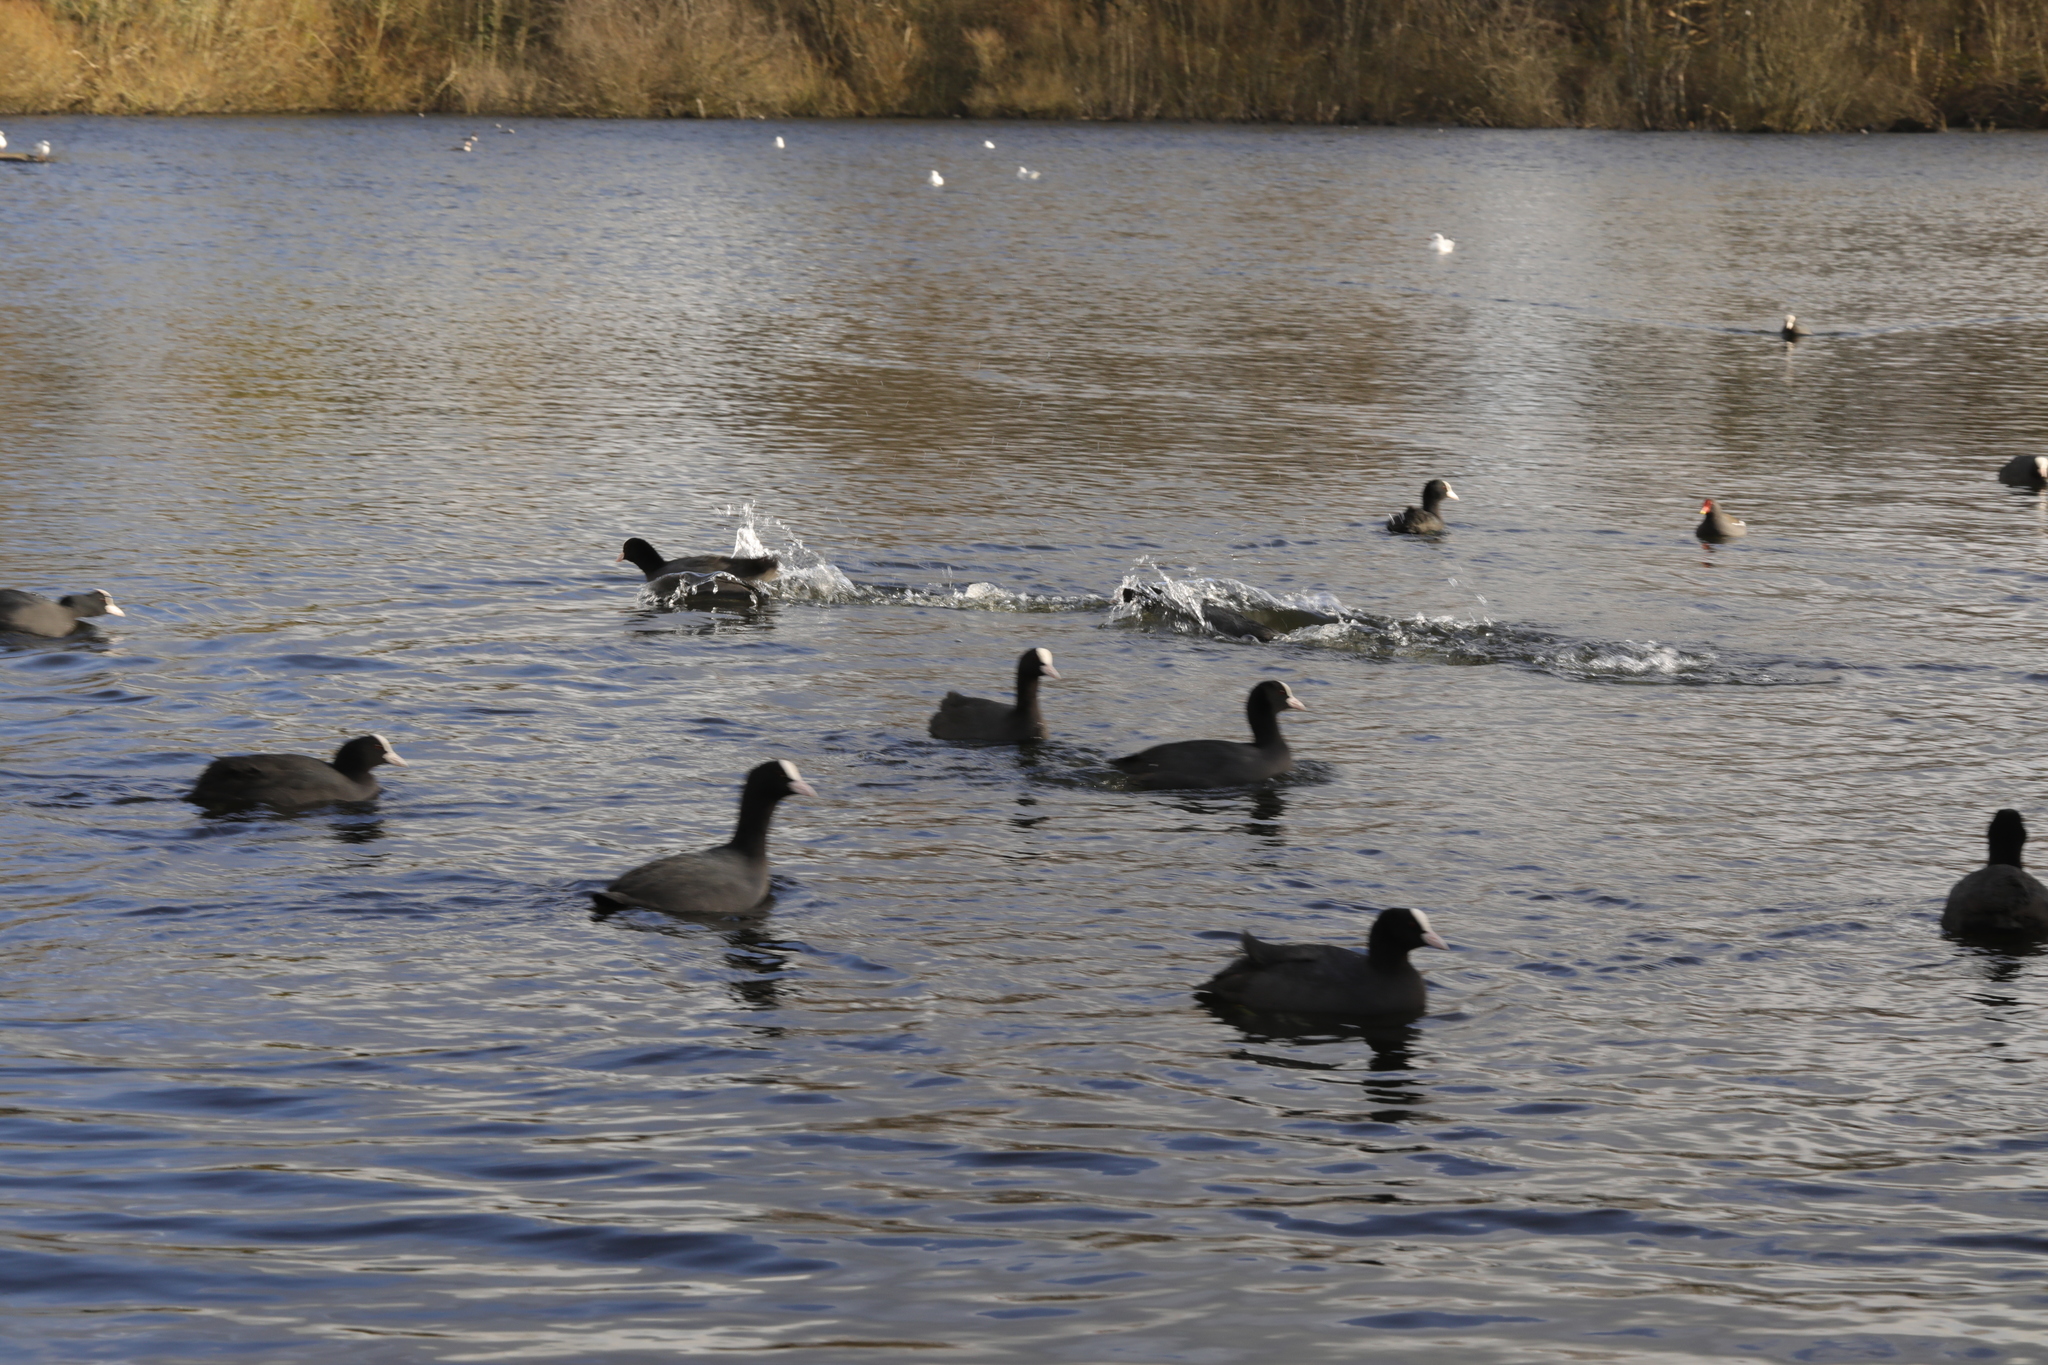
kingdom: Animalia
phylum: Chordata
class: Aves
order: Gruiformes
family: Rallidae
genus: Fulica
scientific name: Fulica atra
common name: Eurasian coot
